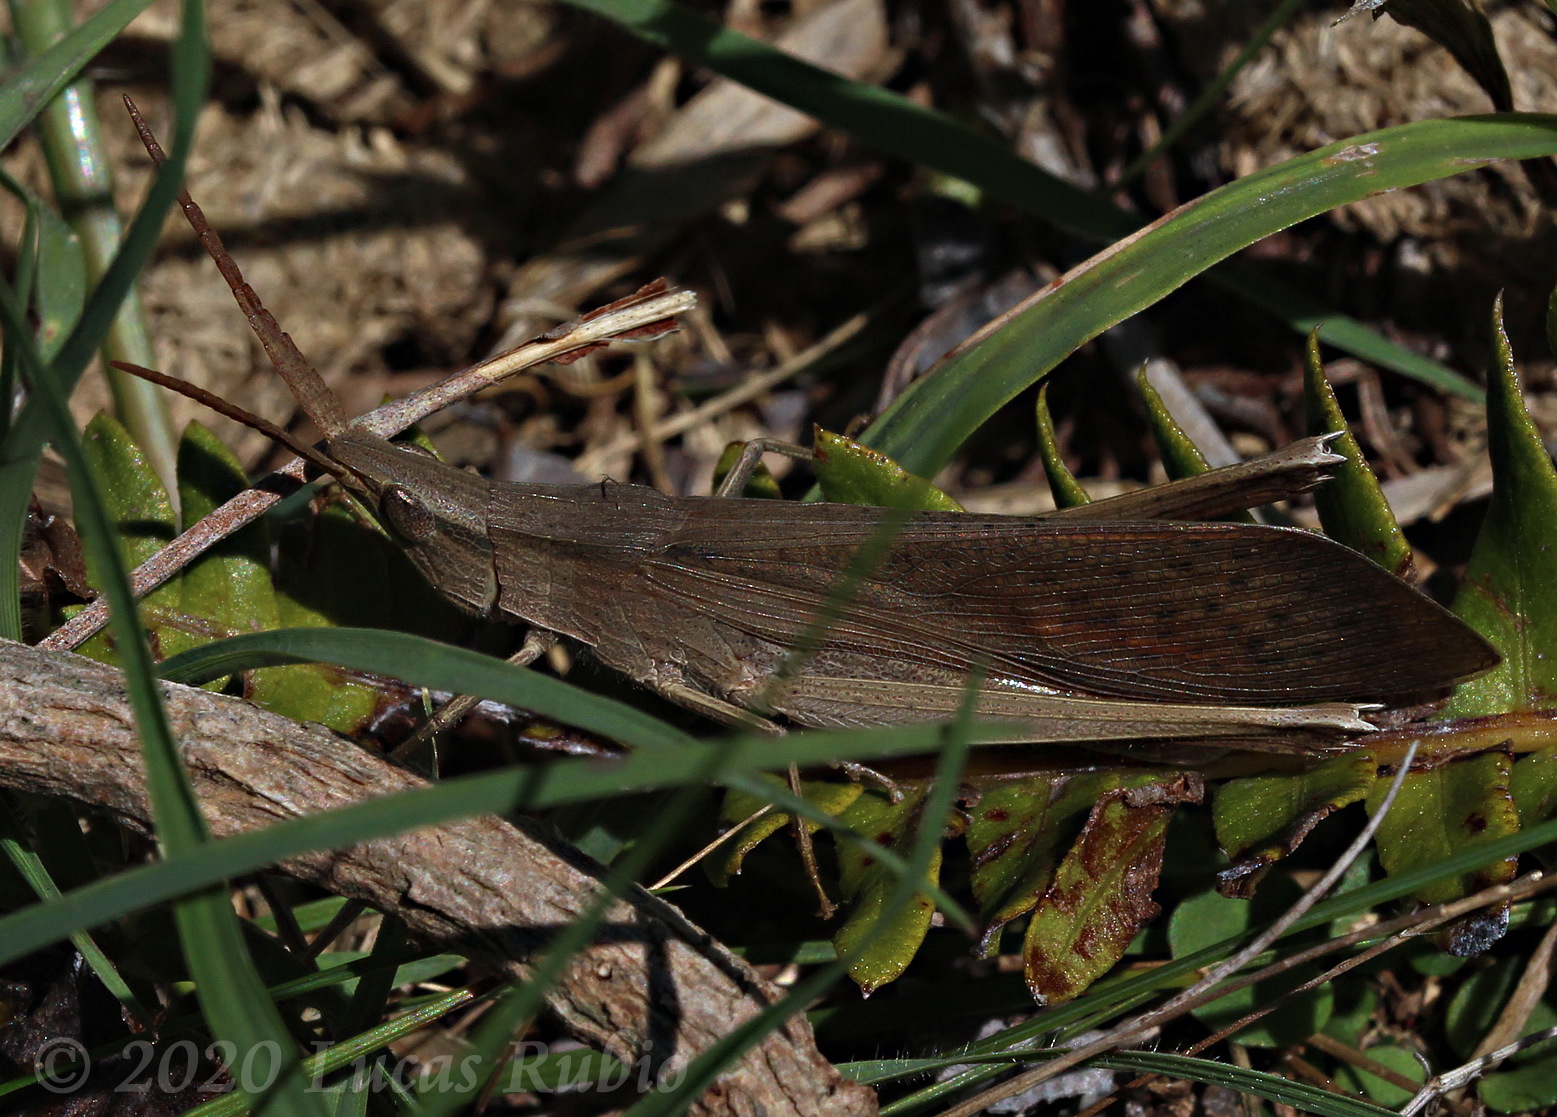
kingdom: Animalia
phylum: Arthropoda
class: Insecta
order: Orthoptera
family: Acrididae
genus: Hyalopteryx
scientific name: Hyalopteryx rufipennis
